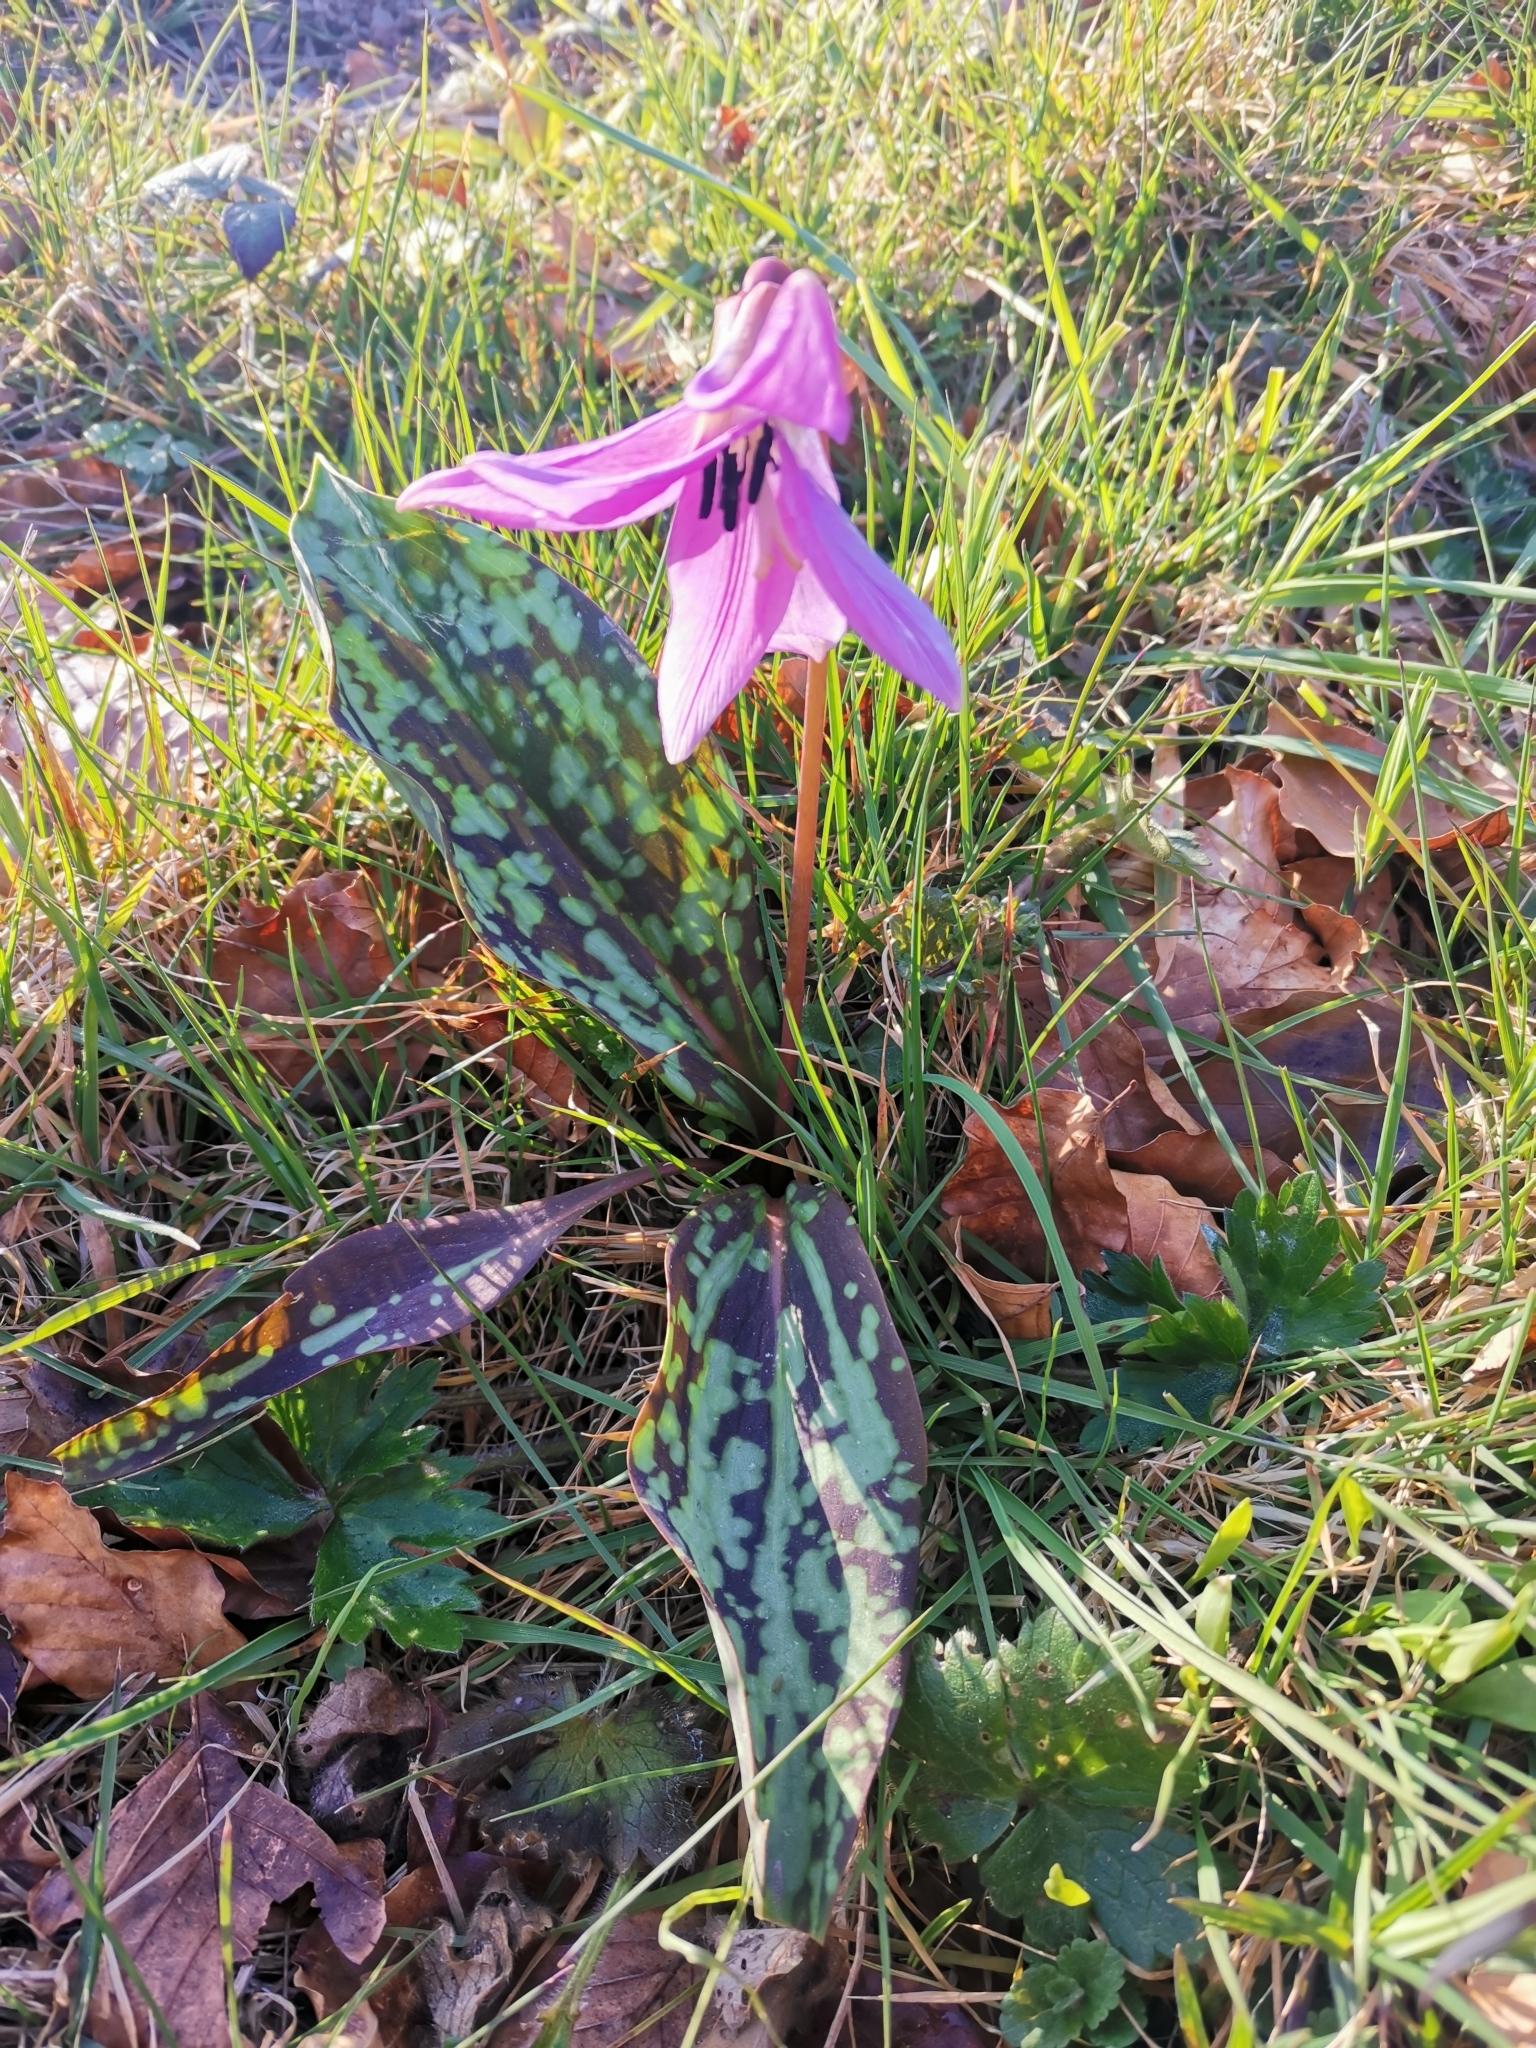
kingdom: Plantae
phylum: Tracheophyta
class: Liliopsida
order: Liliales
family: Liliaceae
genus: Erythronium
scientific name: Erythronium dens-canis
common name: Dog's-tooth-violet
